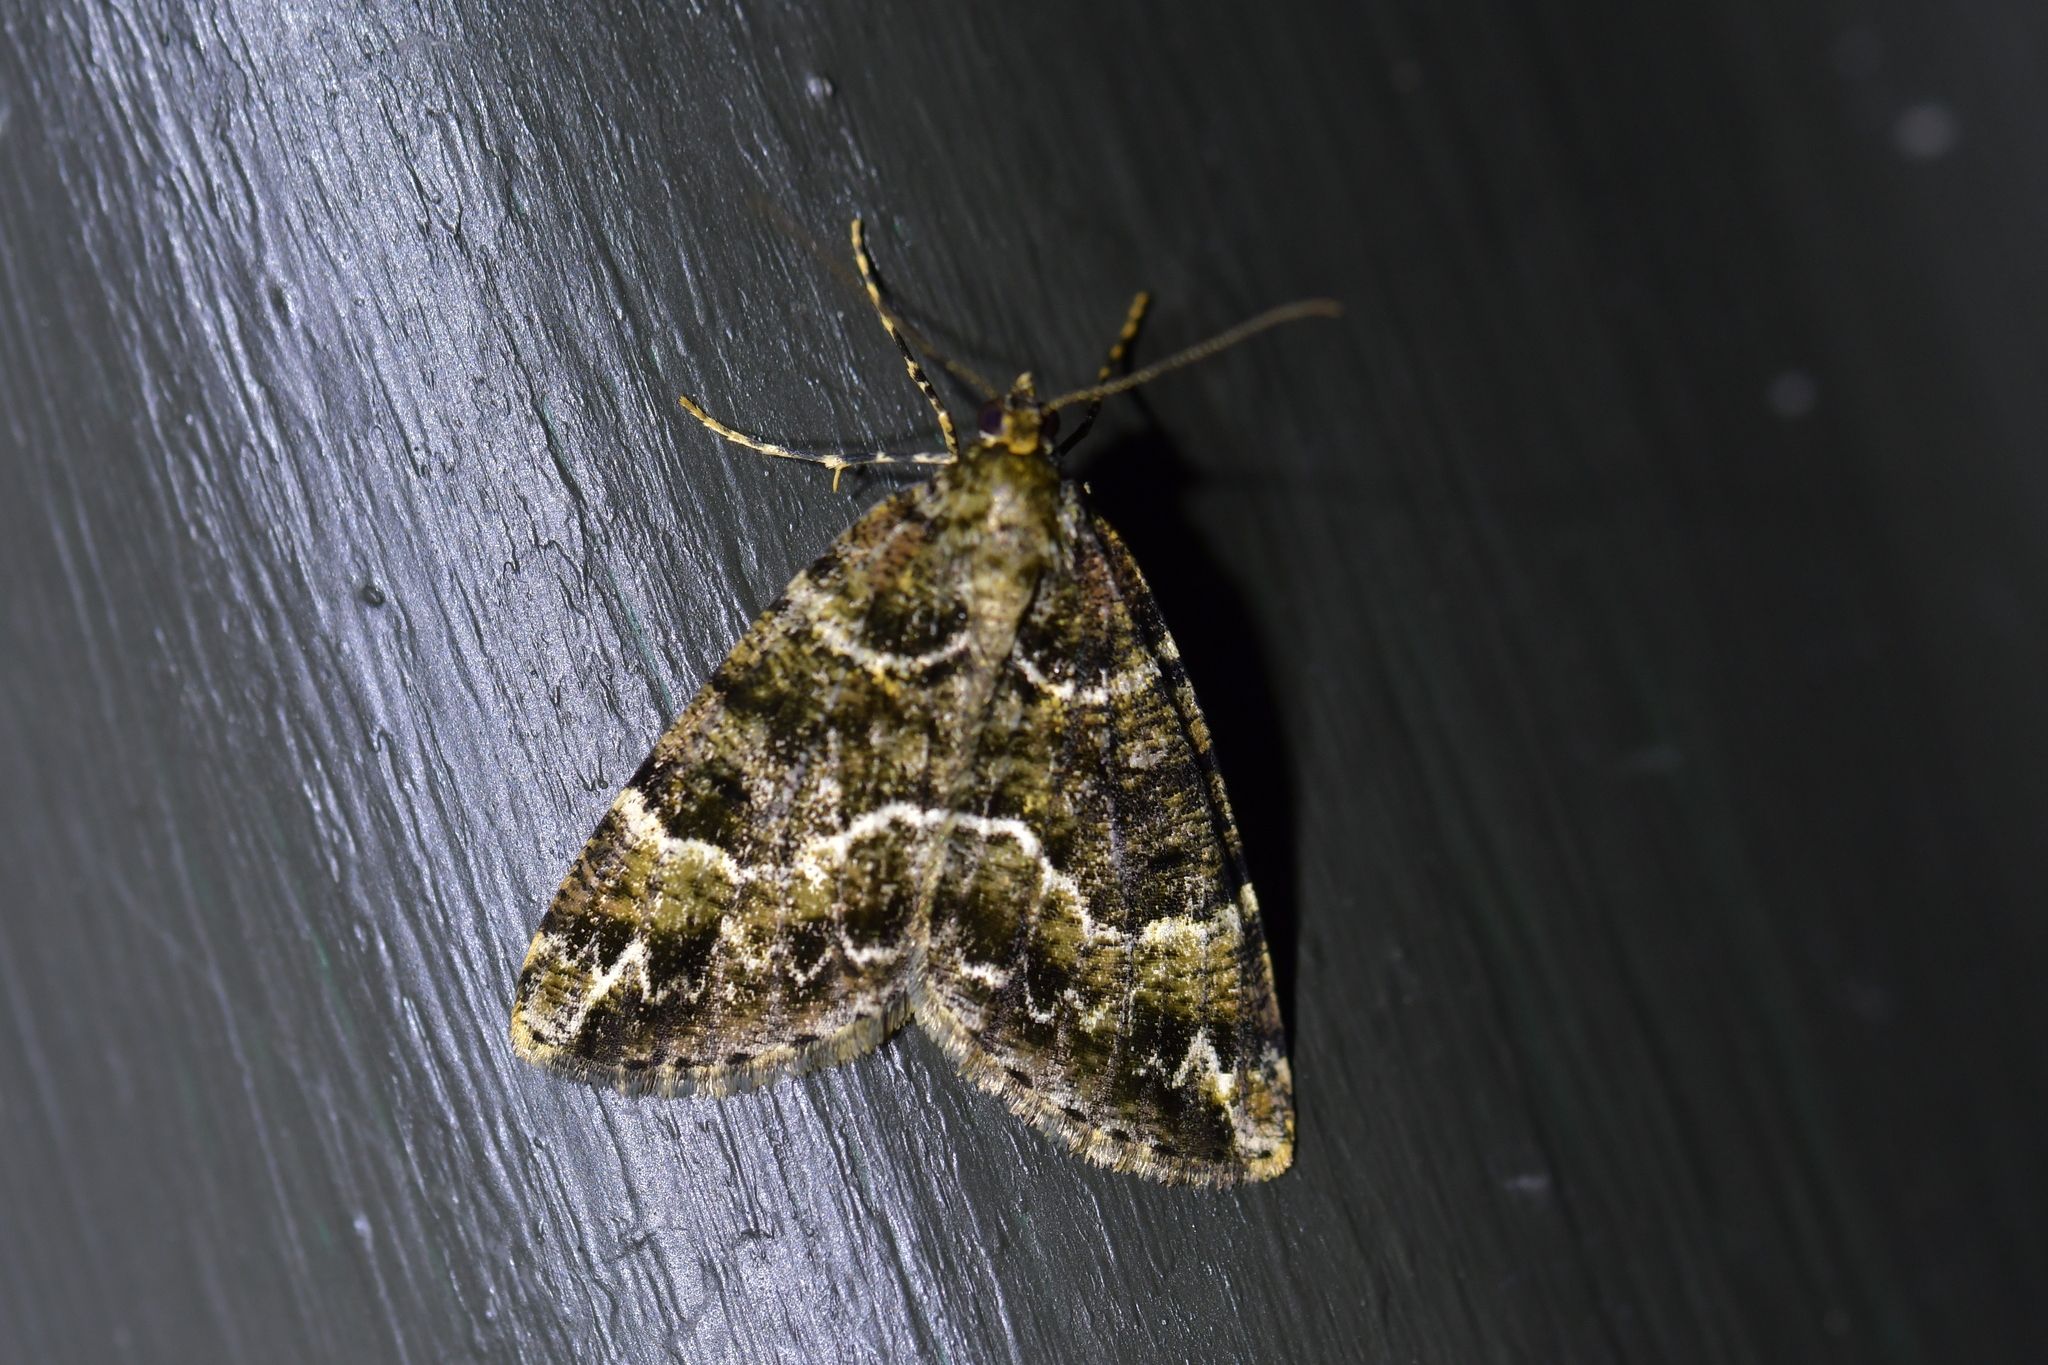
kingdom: Animalia
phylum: Arthropoda
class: Insecta
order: Lepidoptera
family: Geometridae
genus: Pseudocoremia
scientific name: Pseudocoremia productata
